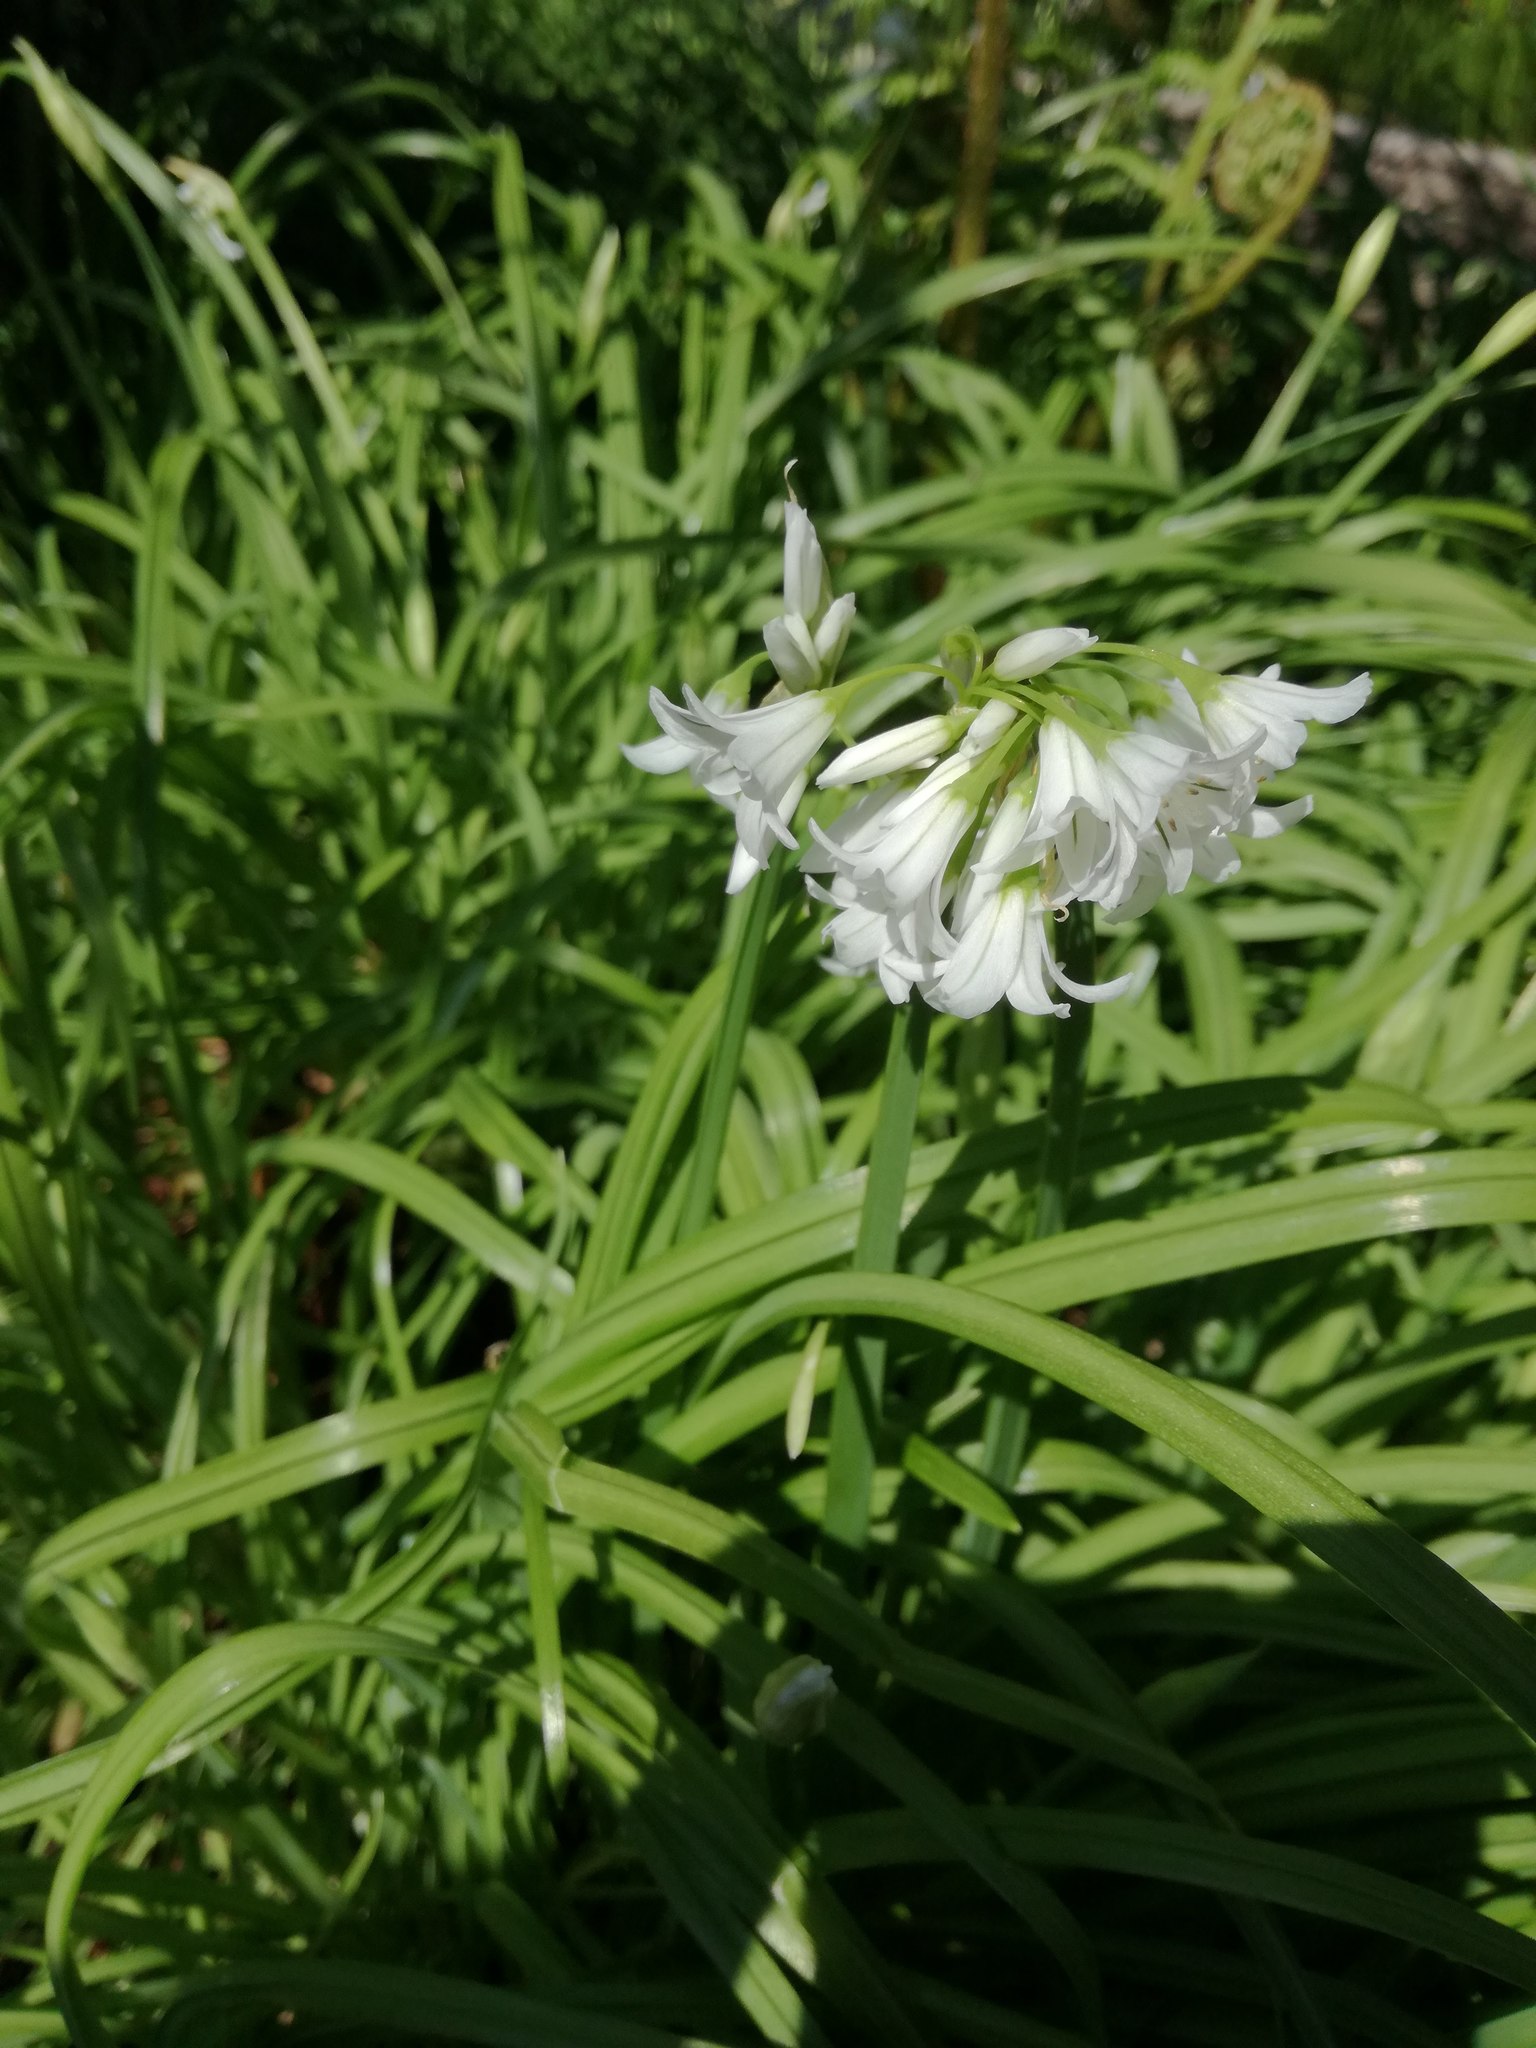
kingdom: Plantae
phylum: Tracheophyta
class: Liliopsida
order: Asparagales
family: Amaryllidaceae
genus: Allium
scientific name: Allium triquetrum
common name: Three-cornered garlic
